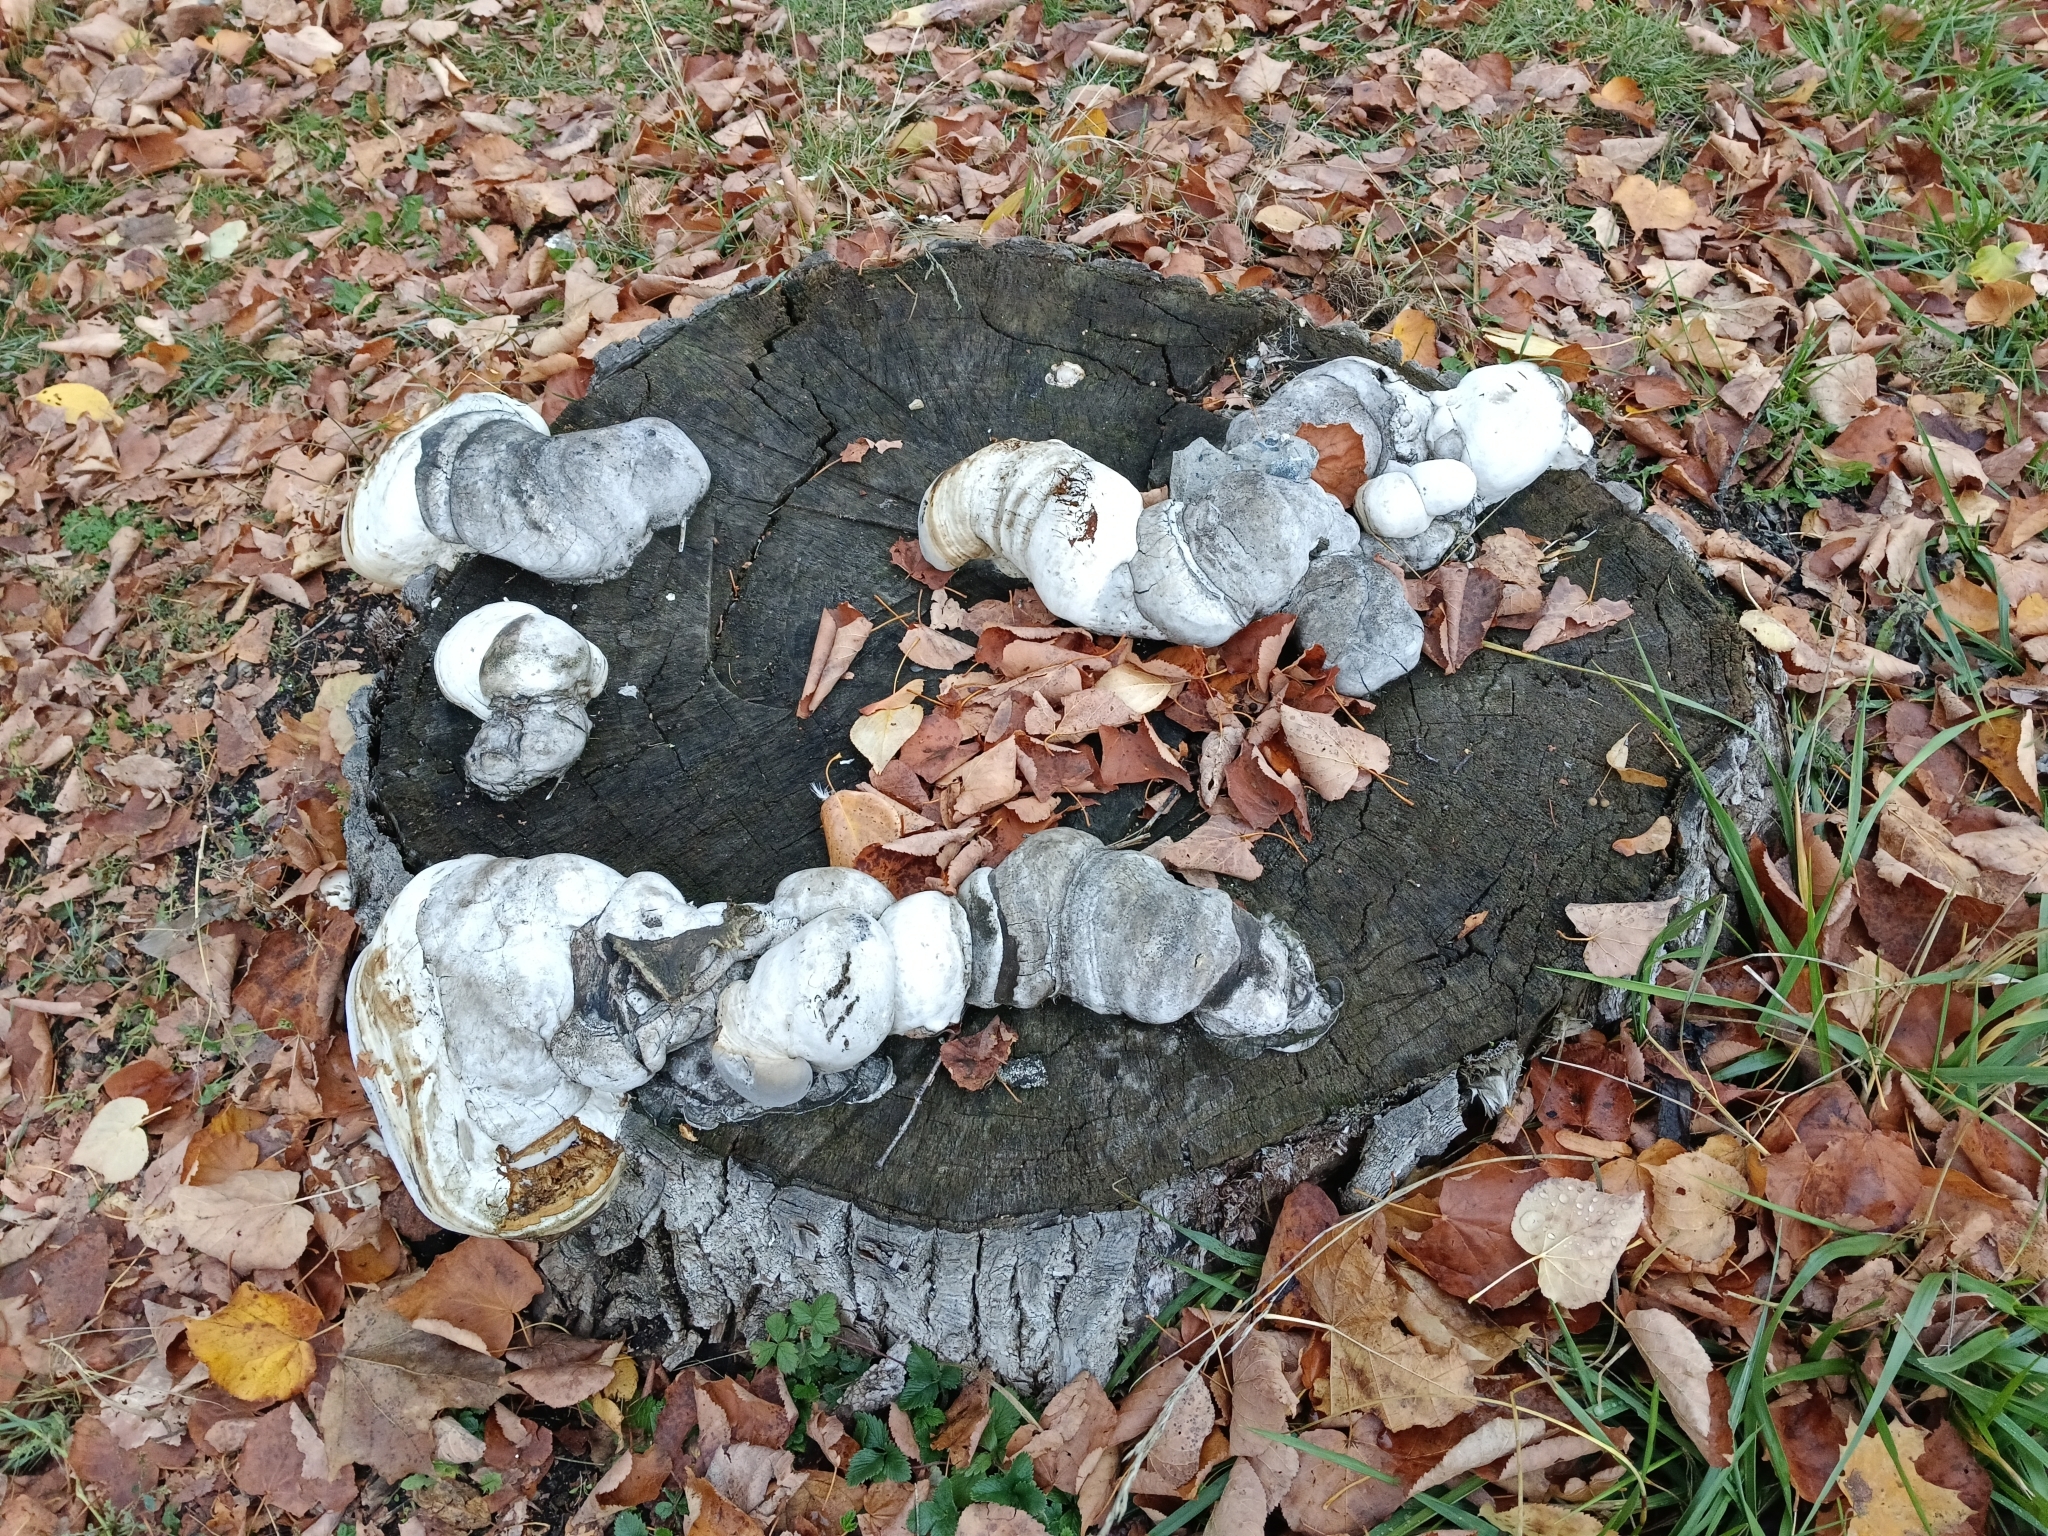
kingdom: Fungi
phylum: Basidiomycota
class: Agaricomycetes
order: Polyporales
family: Polyporaceae
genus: Fomes
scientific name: Fomes fomentarius
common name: Hoof fungus
